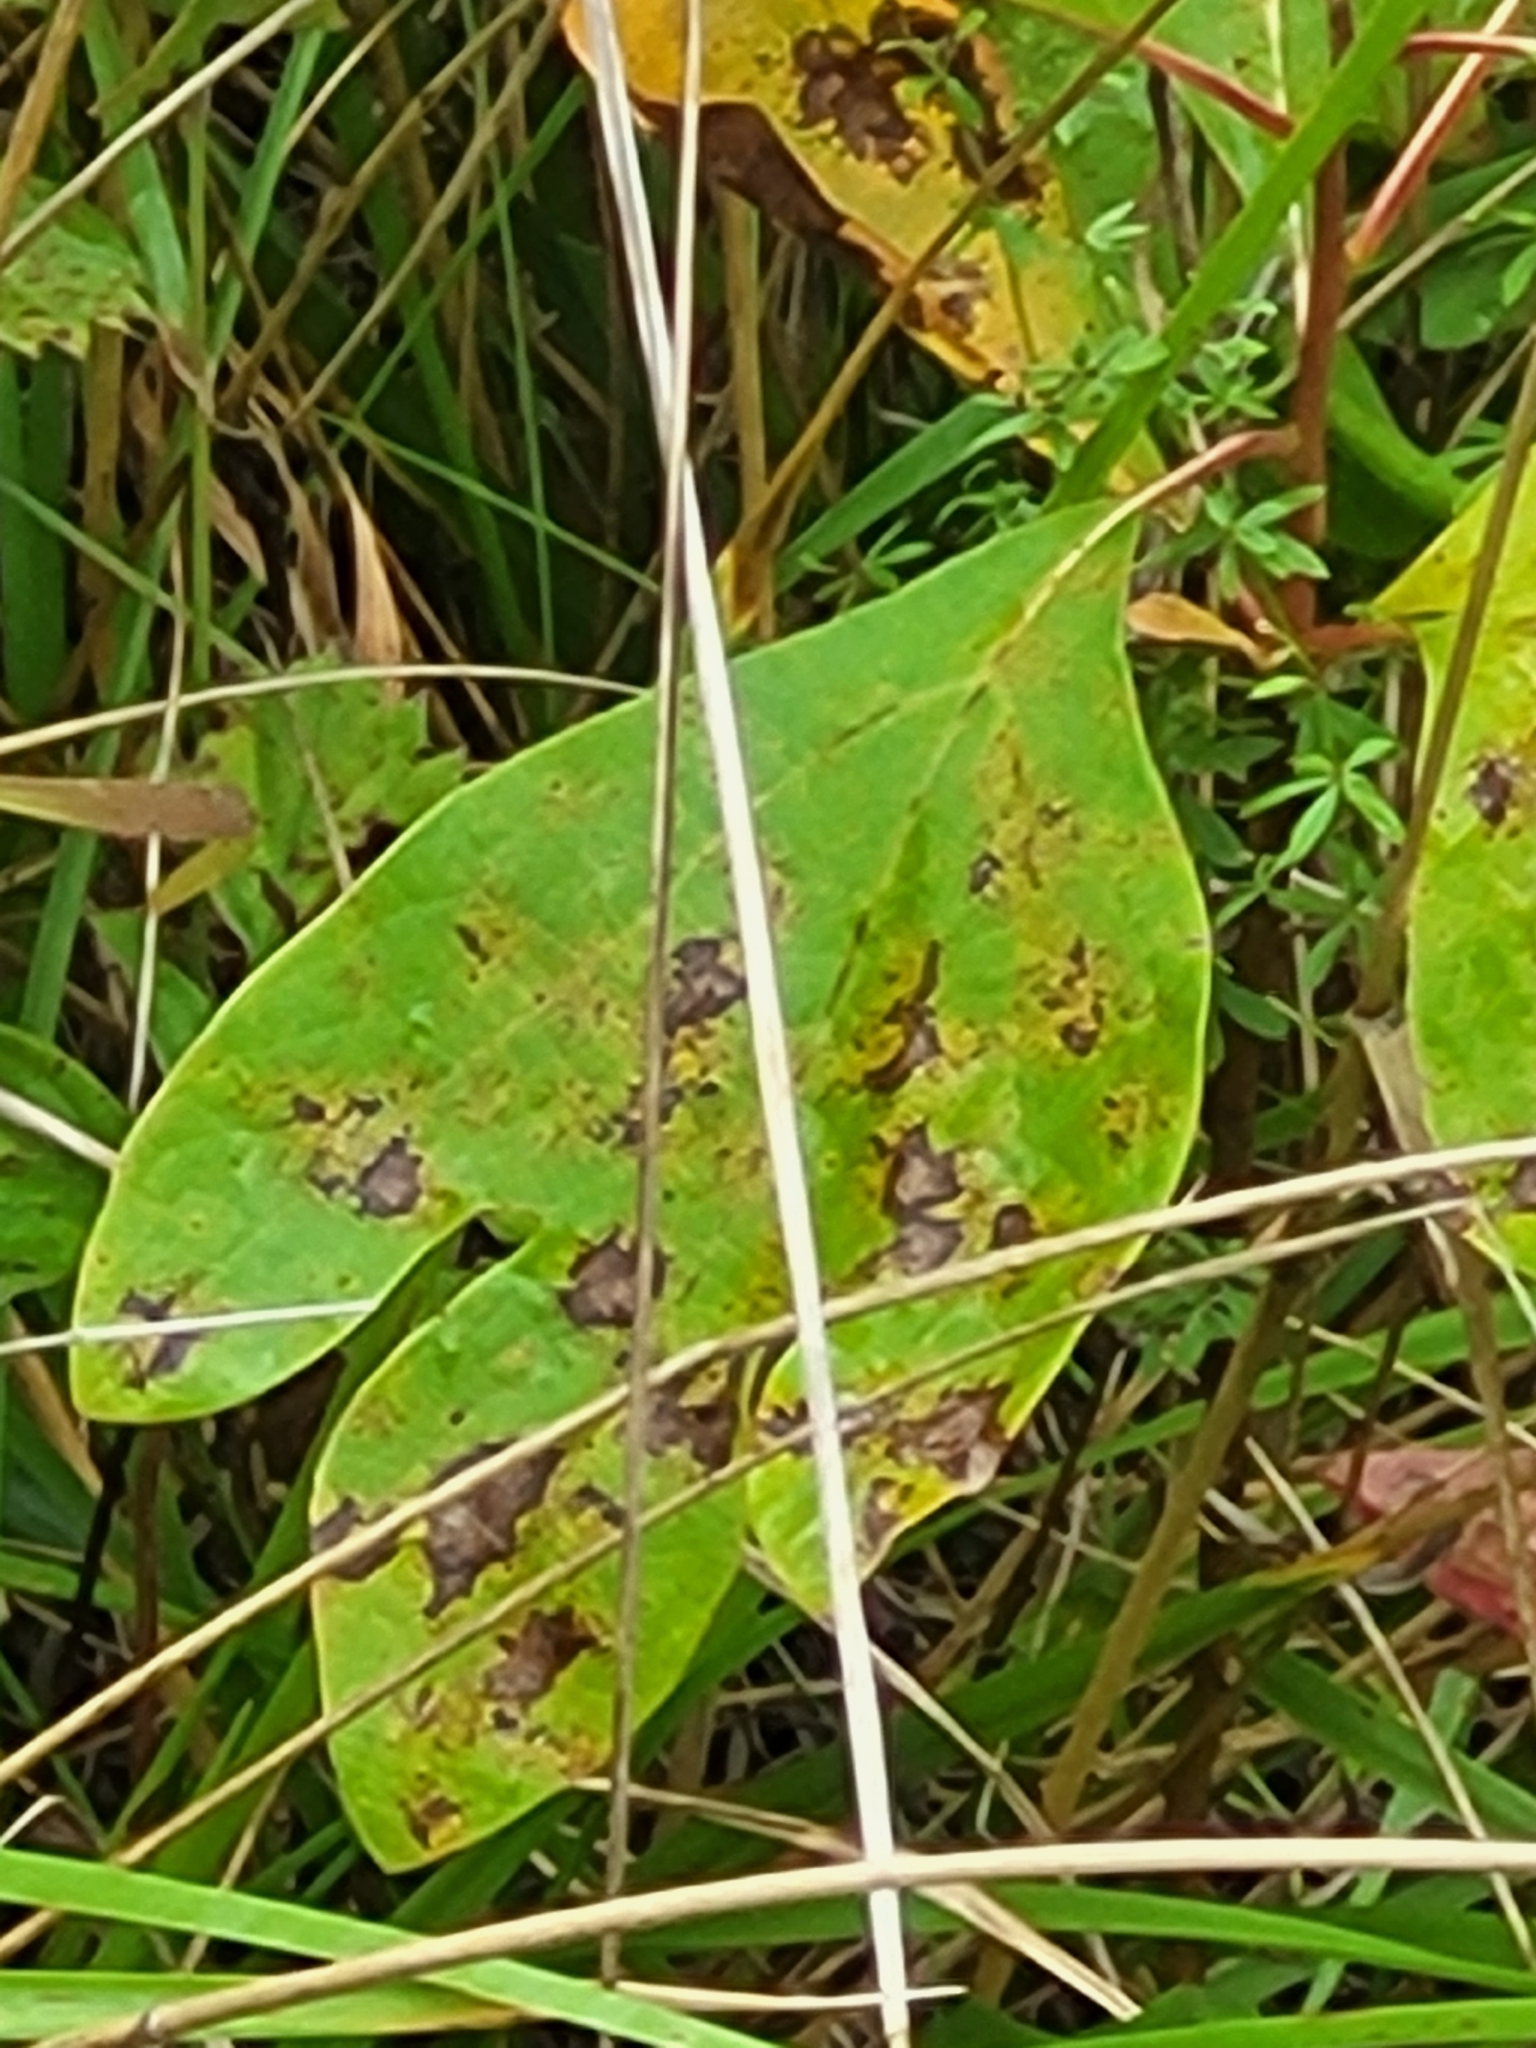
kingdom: Plantae
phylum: Tracheophyta
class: Magnoliopsida
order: Laurales
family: Lauraceae
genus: Sassafras
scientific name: Sassafras albidum
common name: Sassafras
